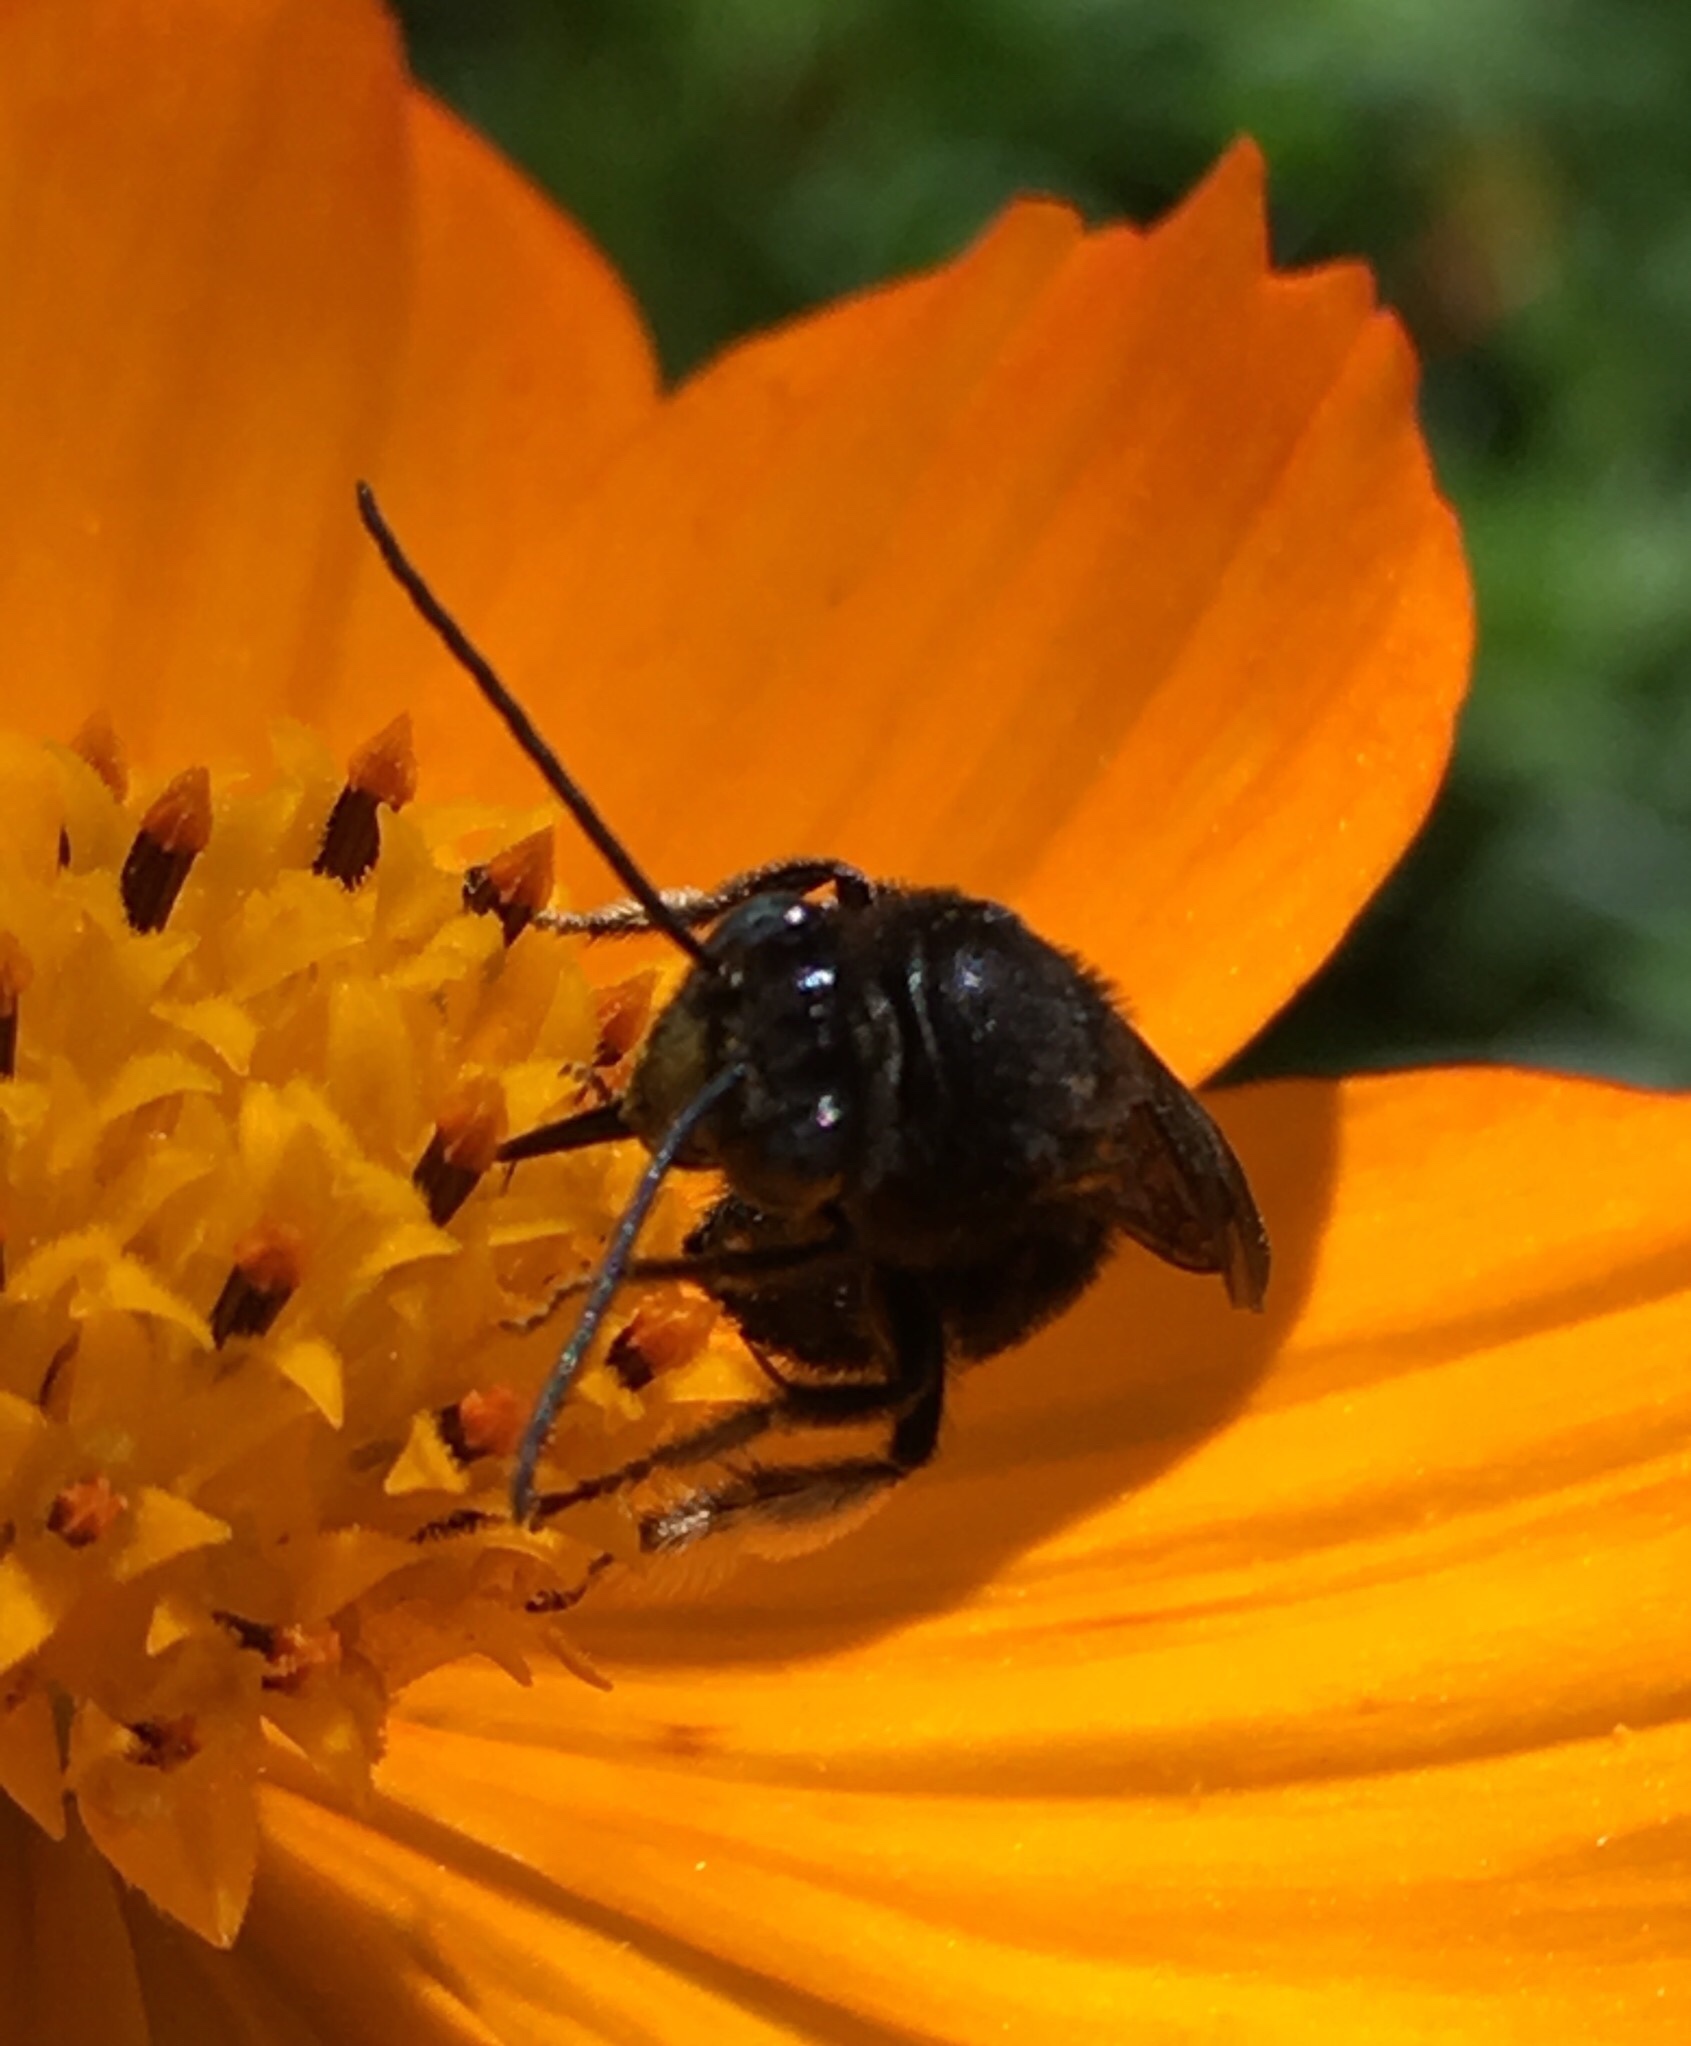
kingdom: Animalia
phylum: Arthropoda
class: Insecta
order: Hymenoptera
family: Apidae
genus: Melissodes
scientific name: Melissodes bimaculatus
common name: Two-spotted long-horned bee
